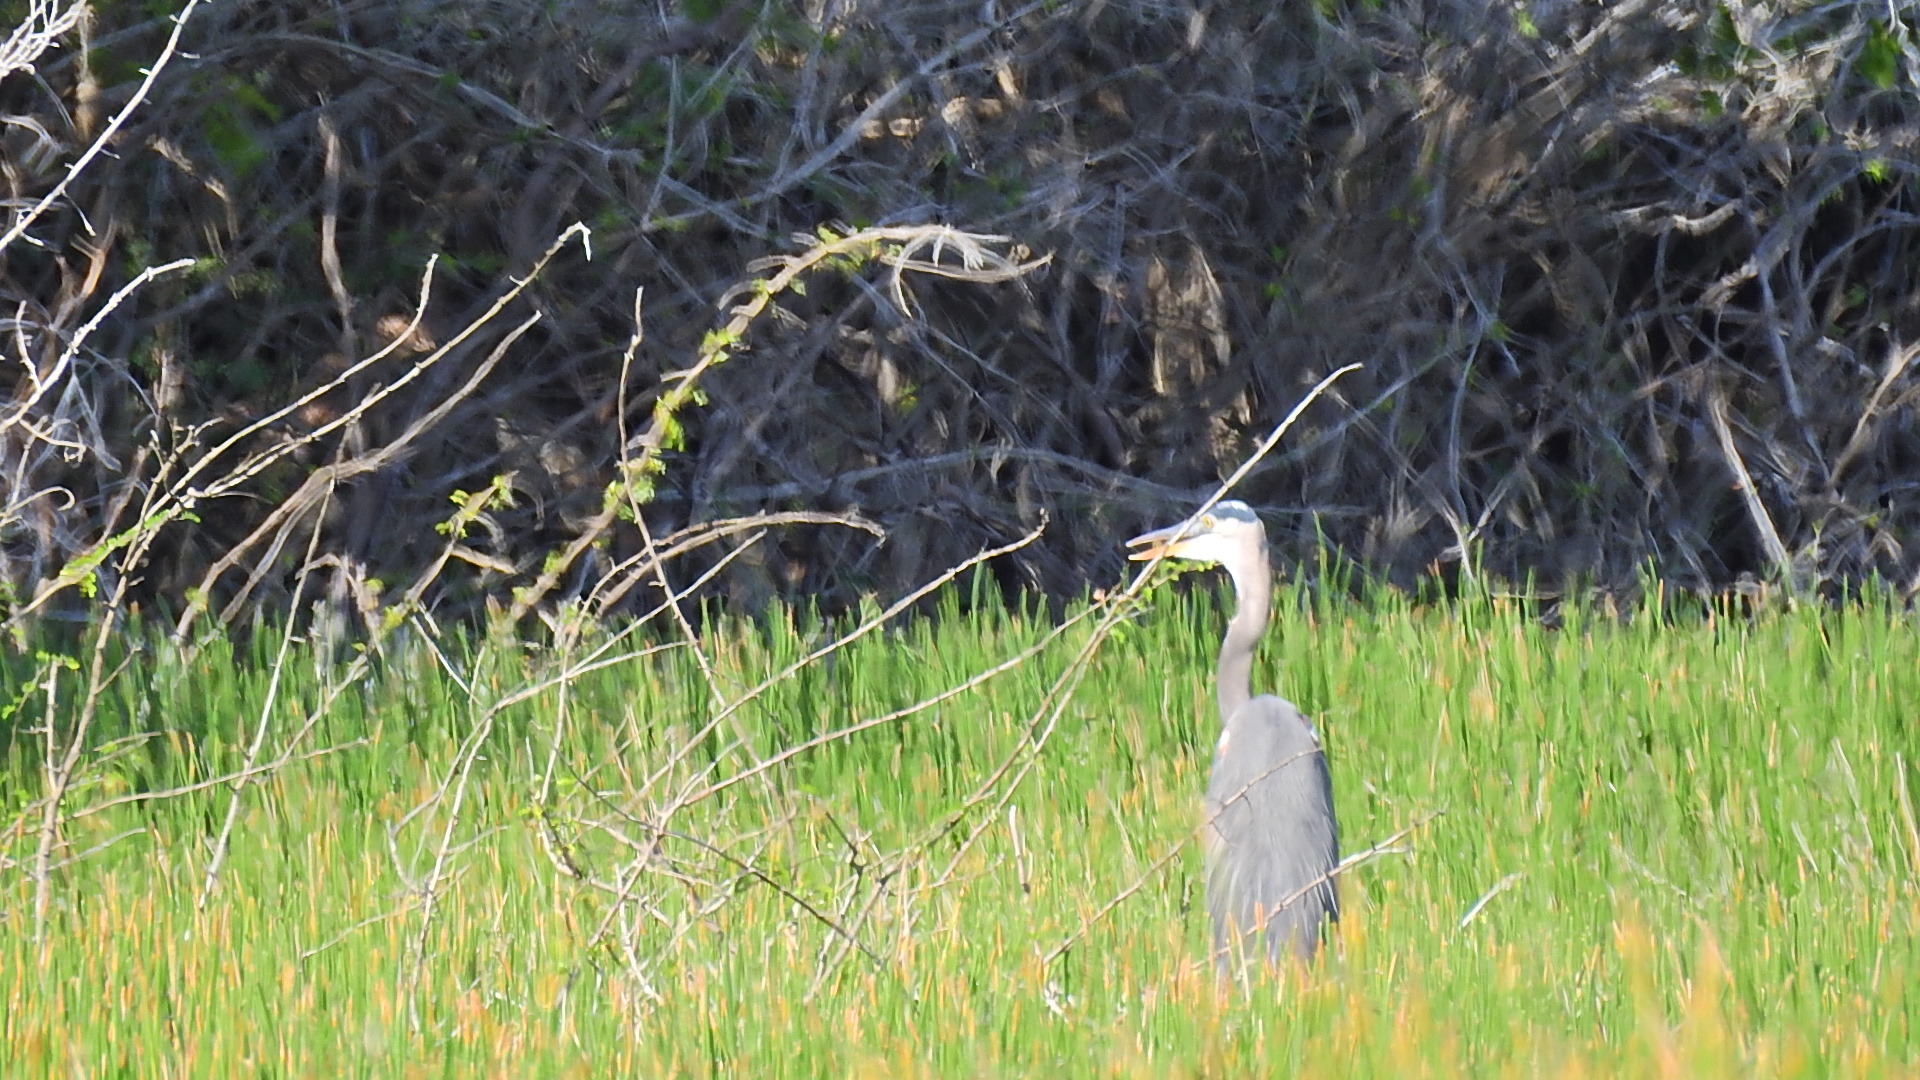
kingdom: Animalia
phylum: Chordata
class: Aves
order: Pelecaniformes
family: Ardeidae
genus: Ardea
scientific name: Ardea herodias
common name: Great blue heron
